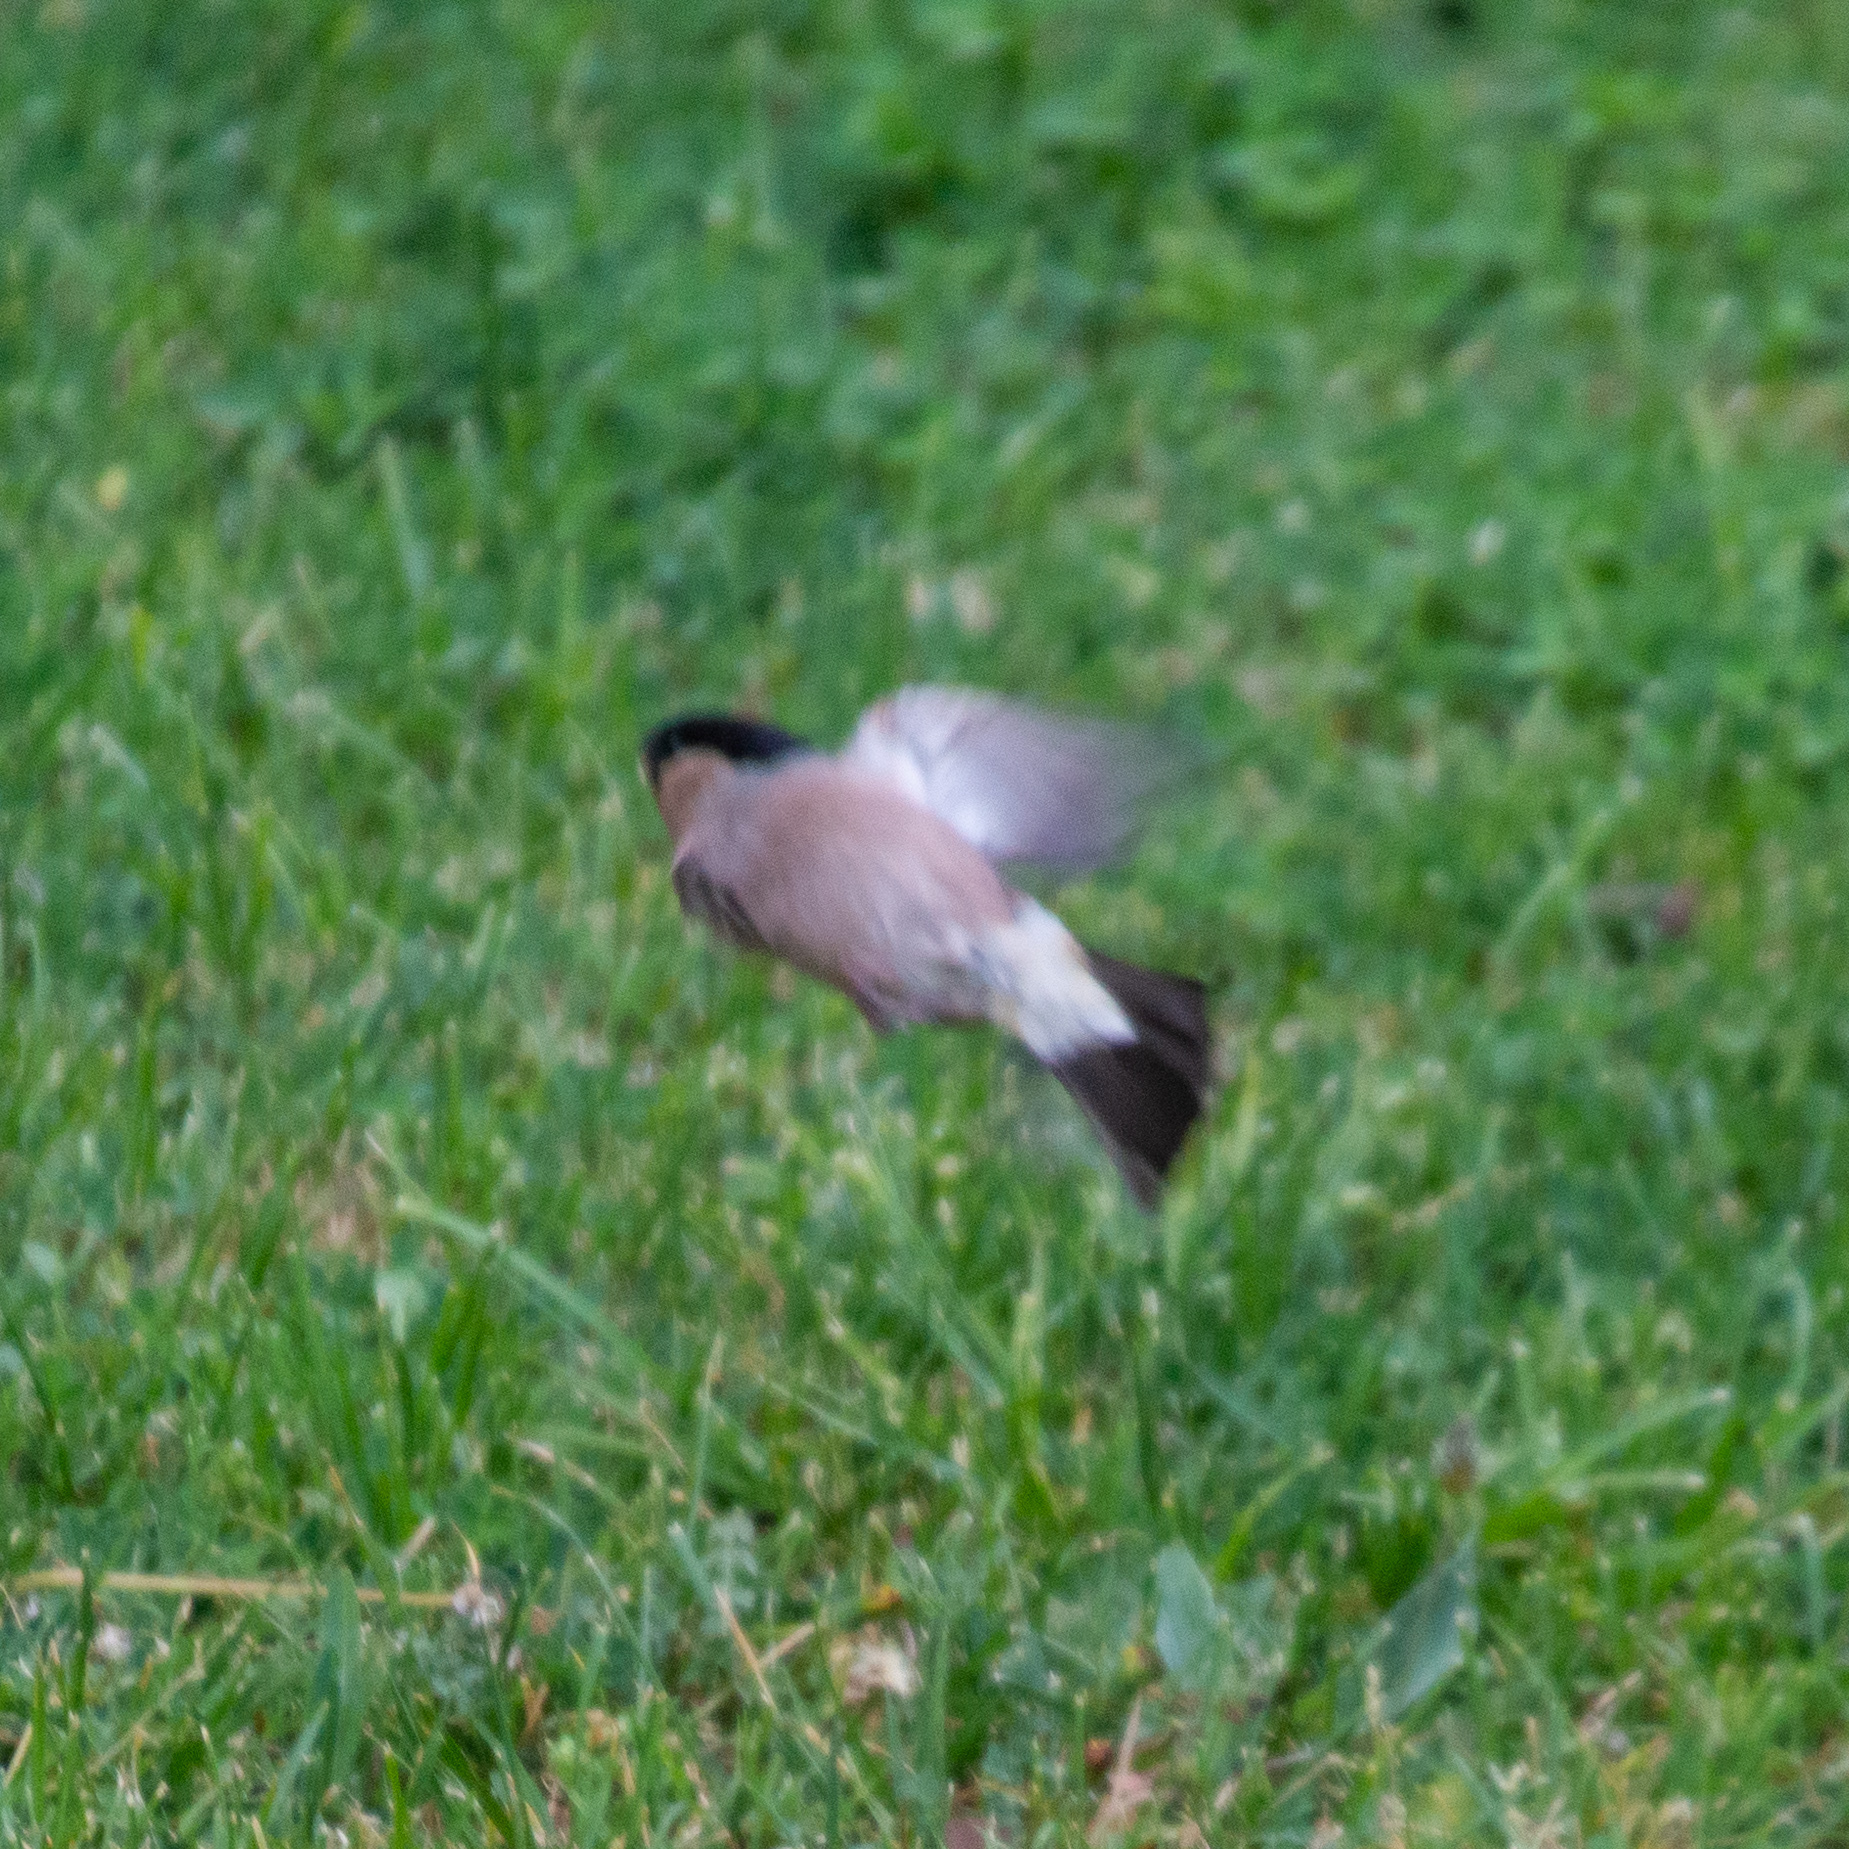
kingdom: Animalia
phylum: Chordata
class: Aves
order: Passeriformes
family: Fringillidae
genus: Pyrrhula
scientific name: Pyrrhula pyrrhula
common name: Eurasian bullfinch
